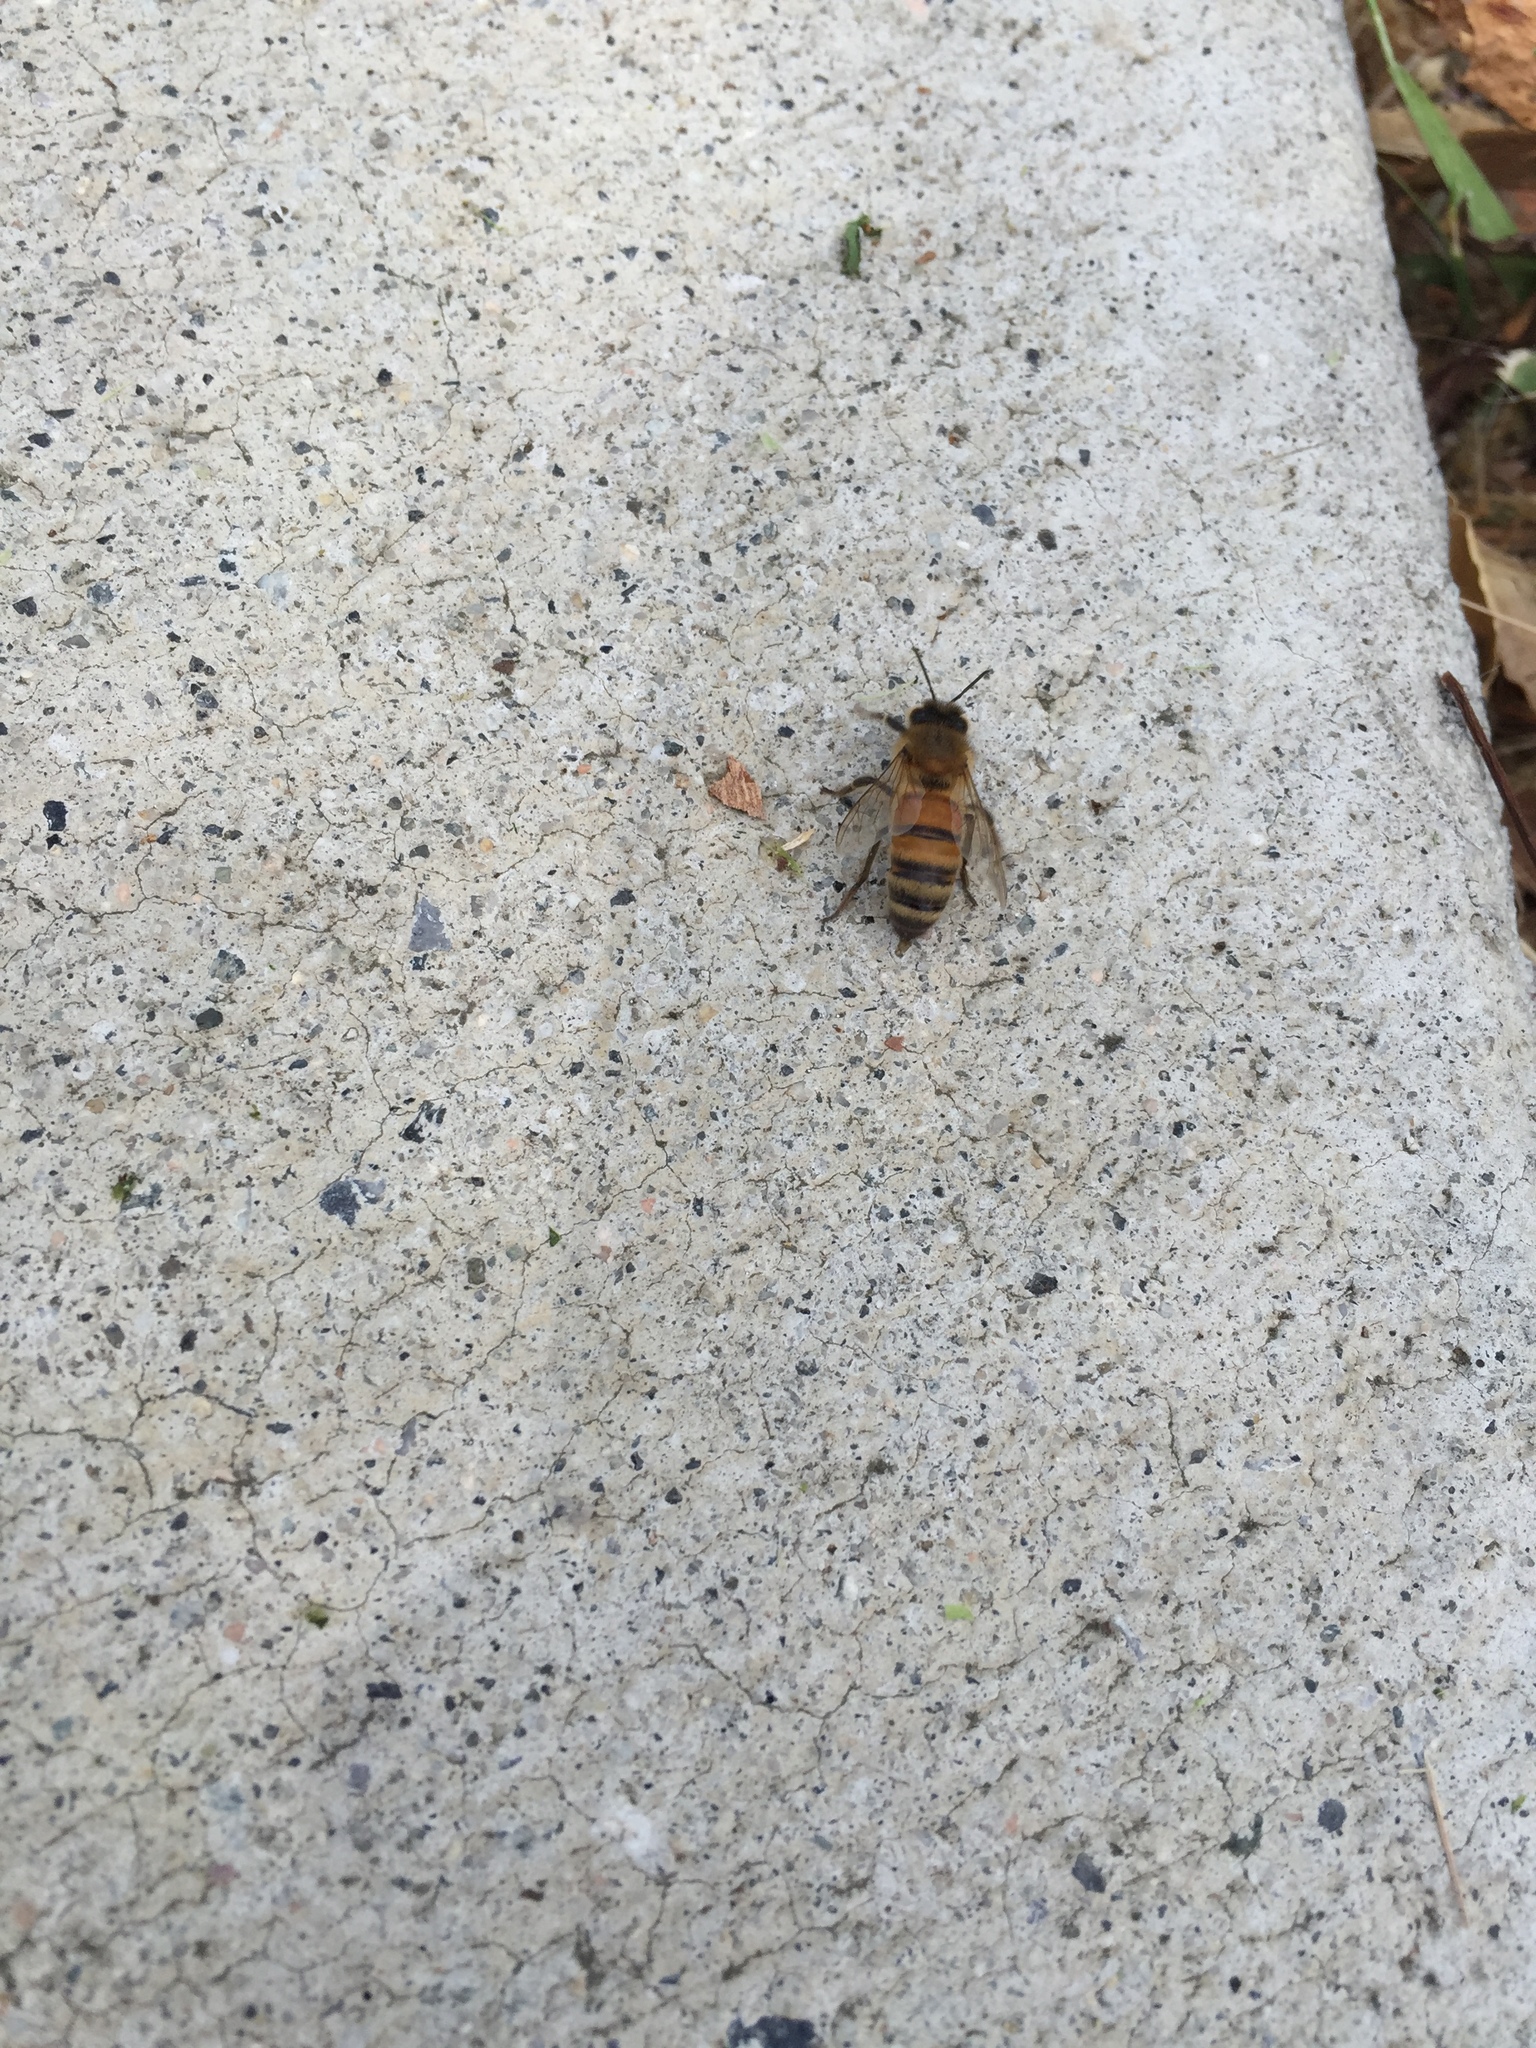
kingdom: Animalia
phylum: Arthropoda
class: Insecta
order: Hymenoptera
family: Apidae
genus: Apis
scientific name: Apis mellifera
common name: Honey bee
